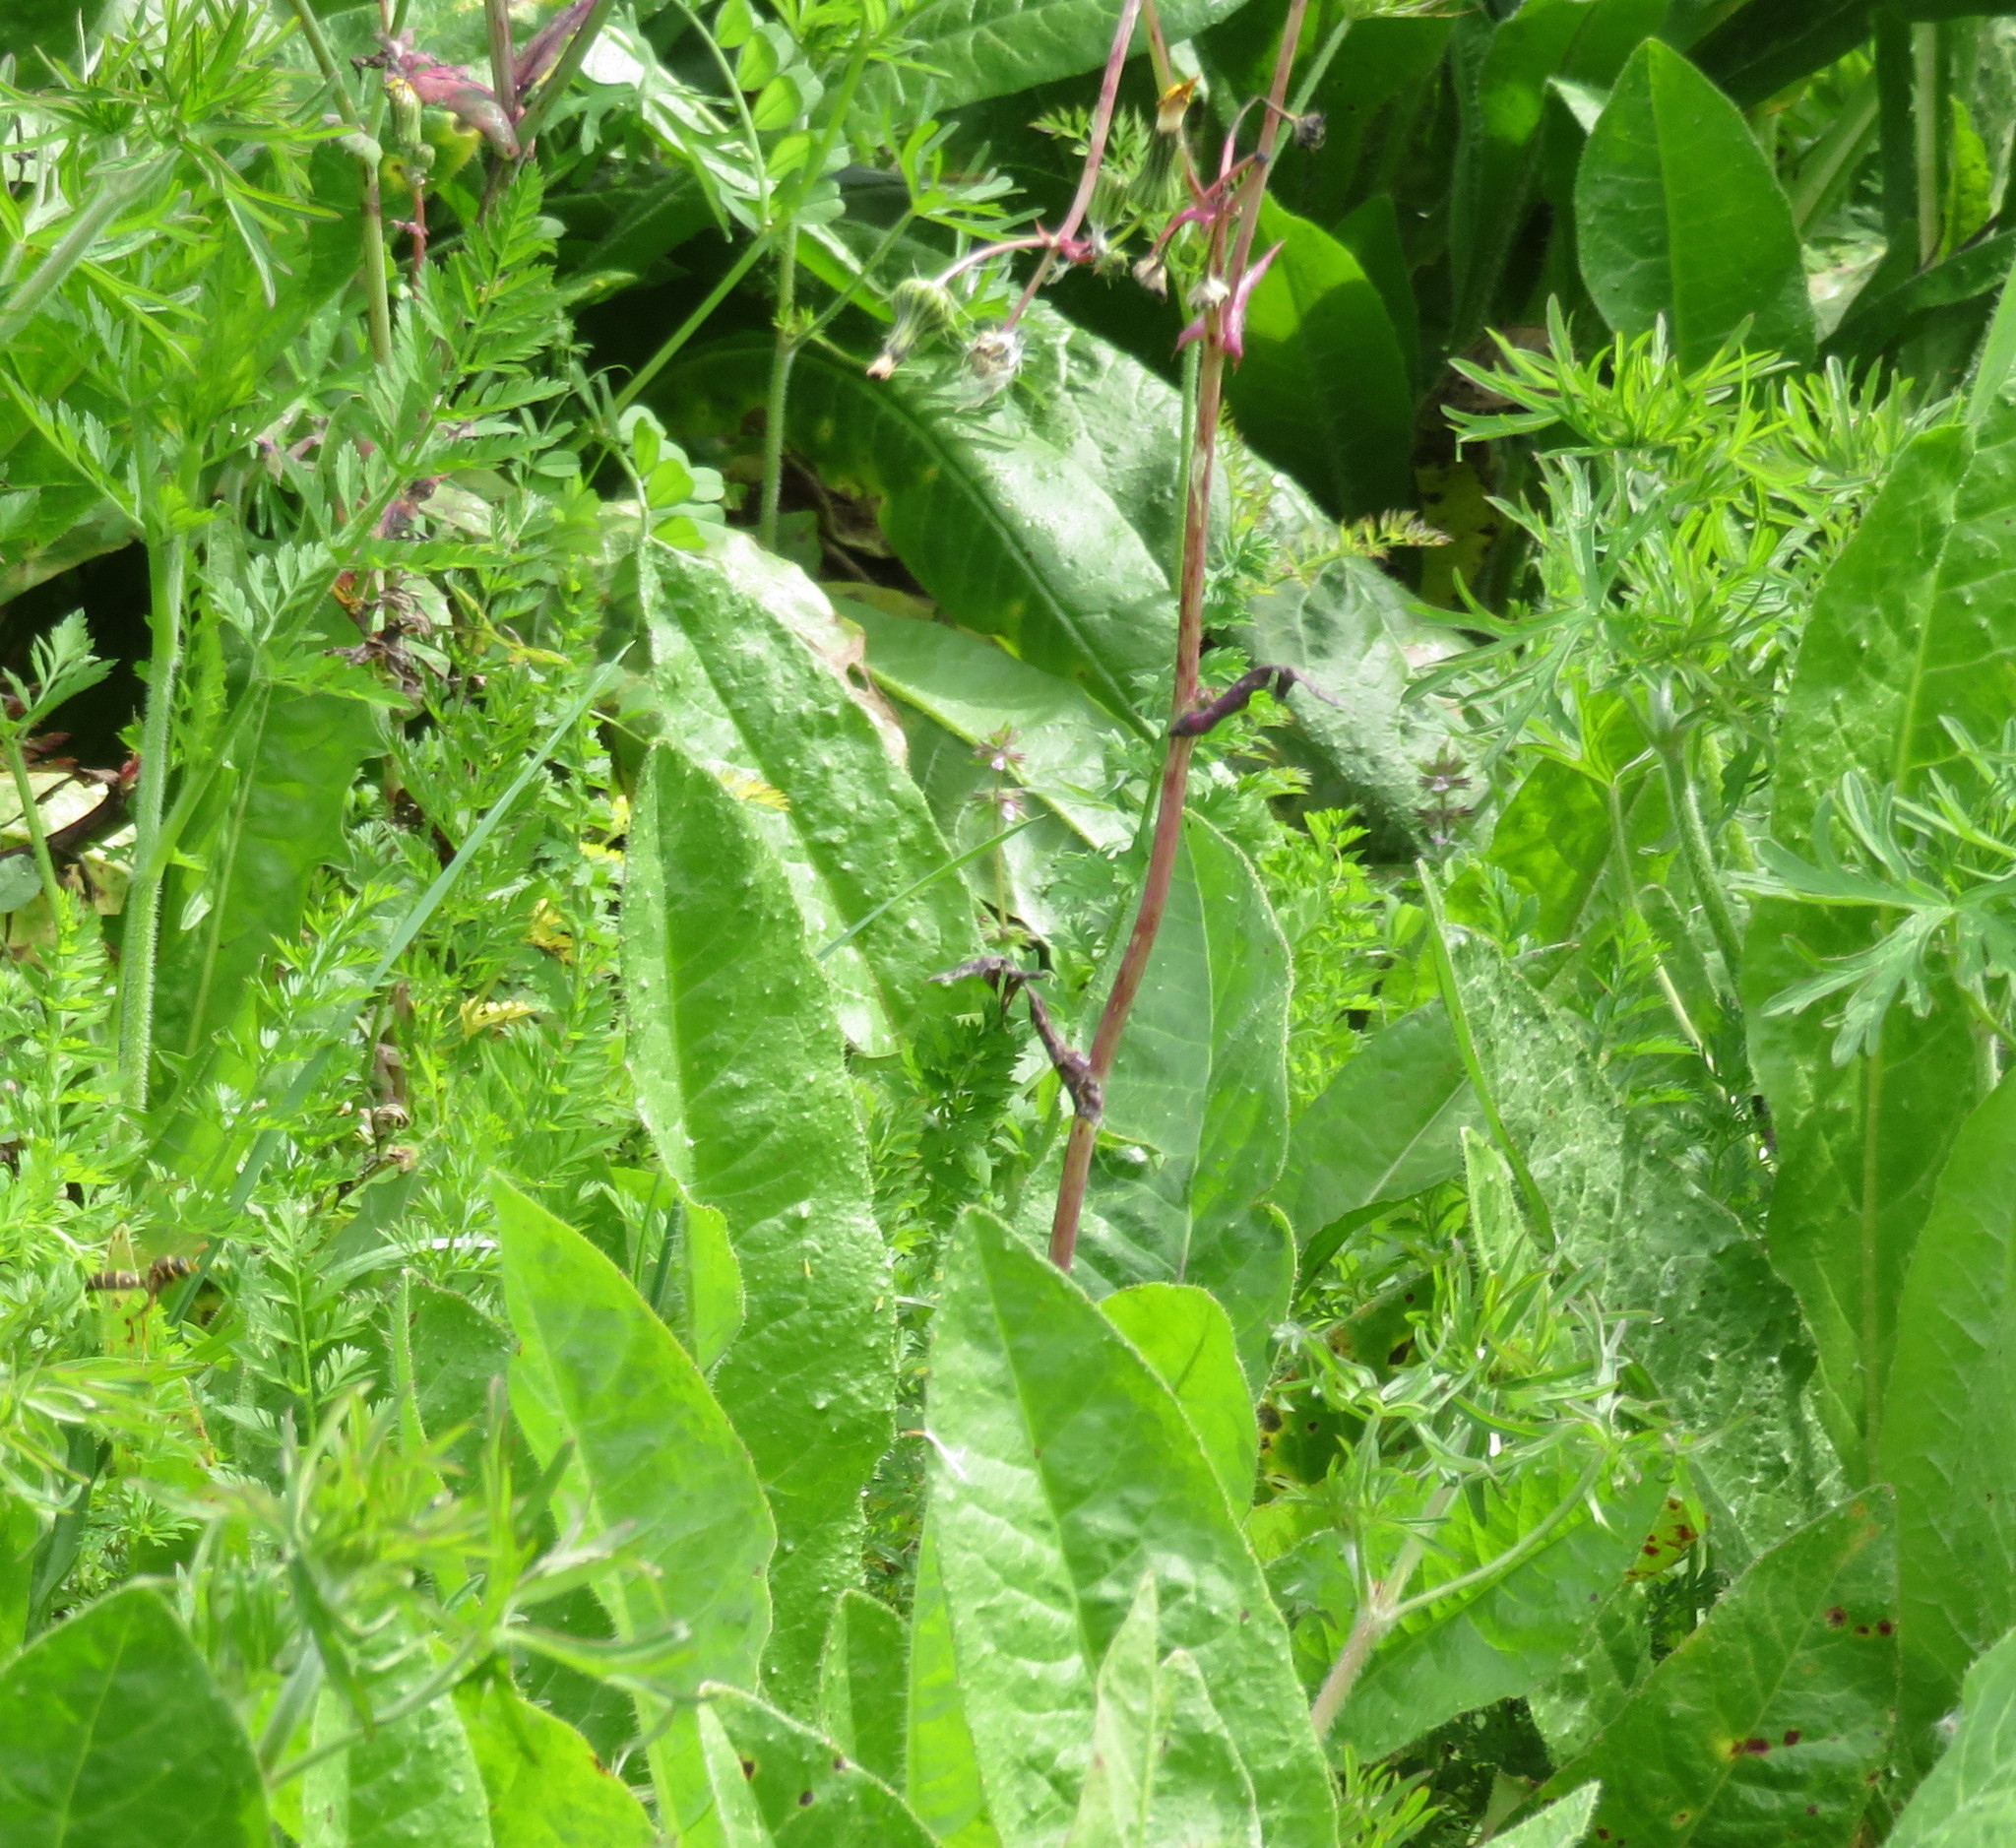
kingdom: Plantae
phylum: Tracheophyta
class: Magnoliopsida
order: Asterales
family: Asteraceae
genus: Sonchus
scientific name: Sonchus oleraceus
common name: Common sowthistle
